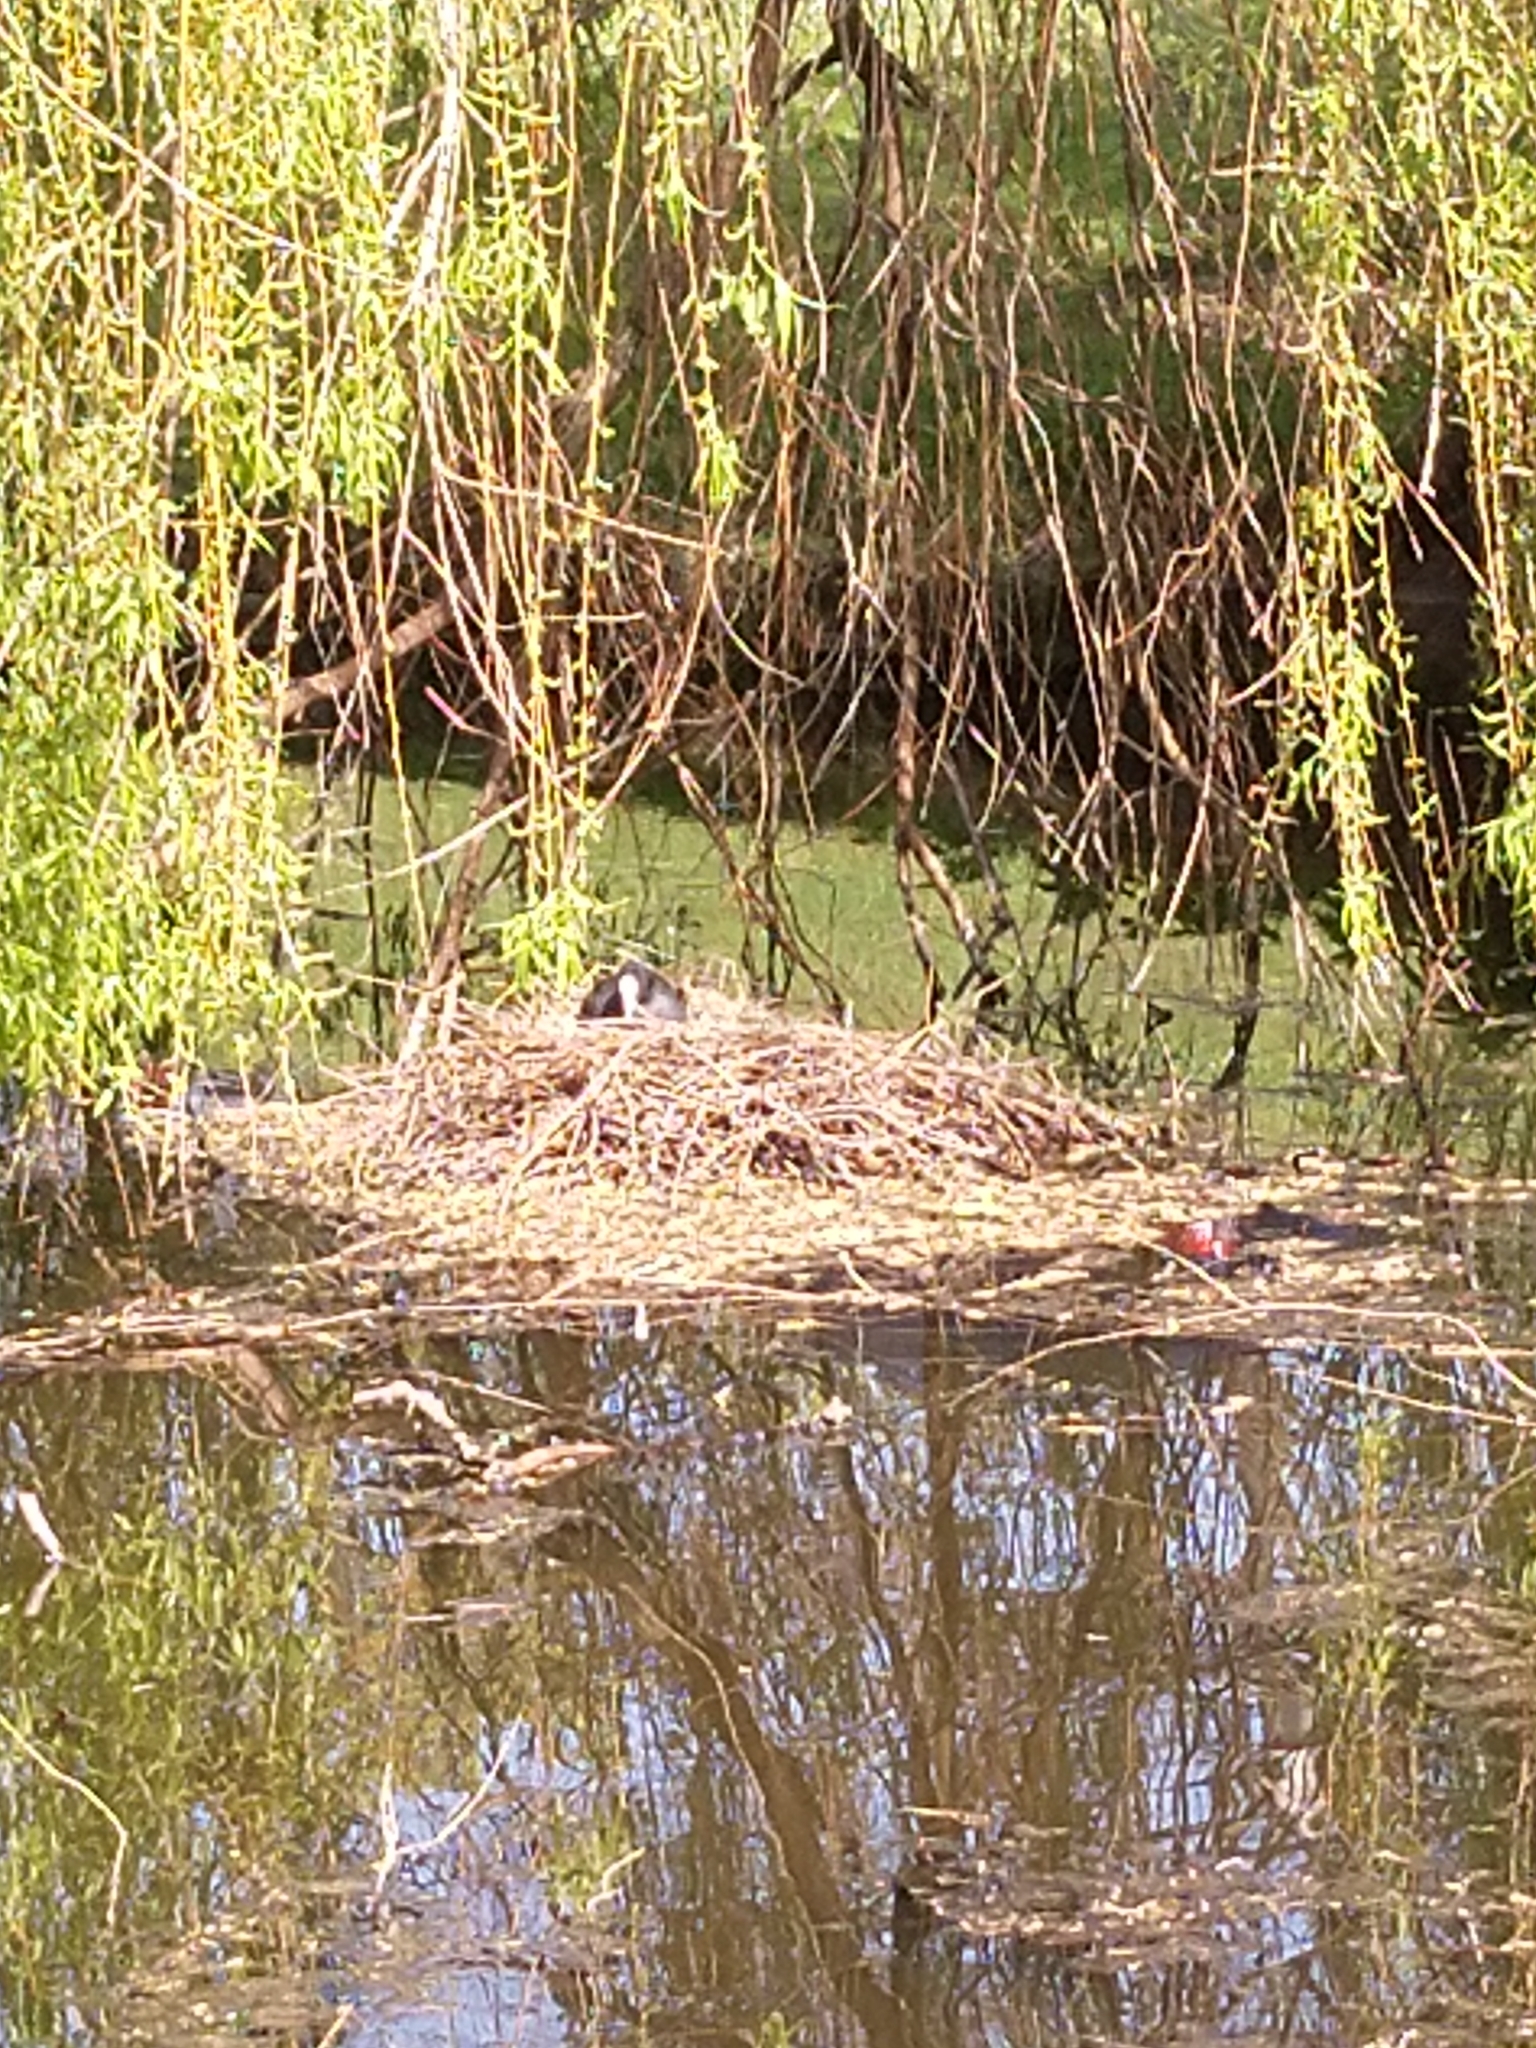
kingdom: Animalia
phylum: Chordata
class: Aves
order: Gruiformes
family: Rallidae
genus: Fulica
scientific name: Fulica atra
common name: Eurasian coot
